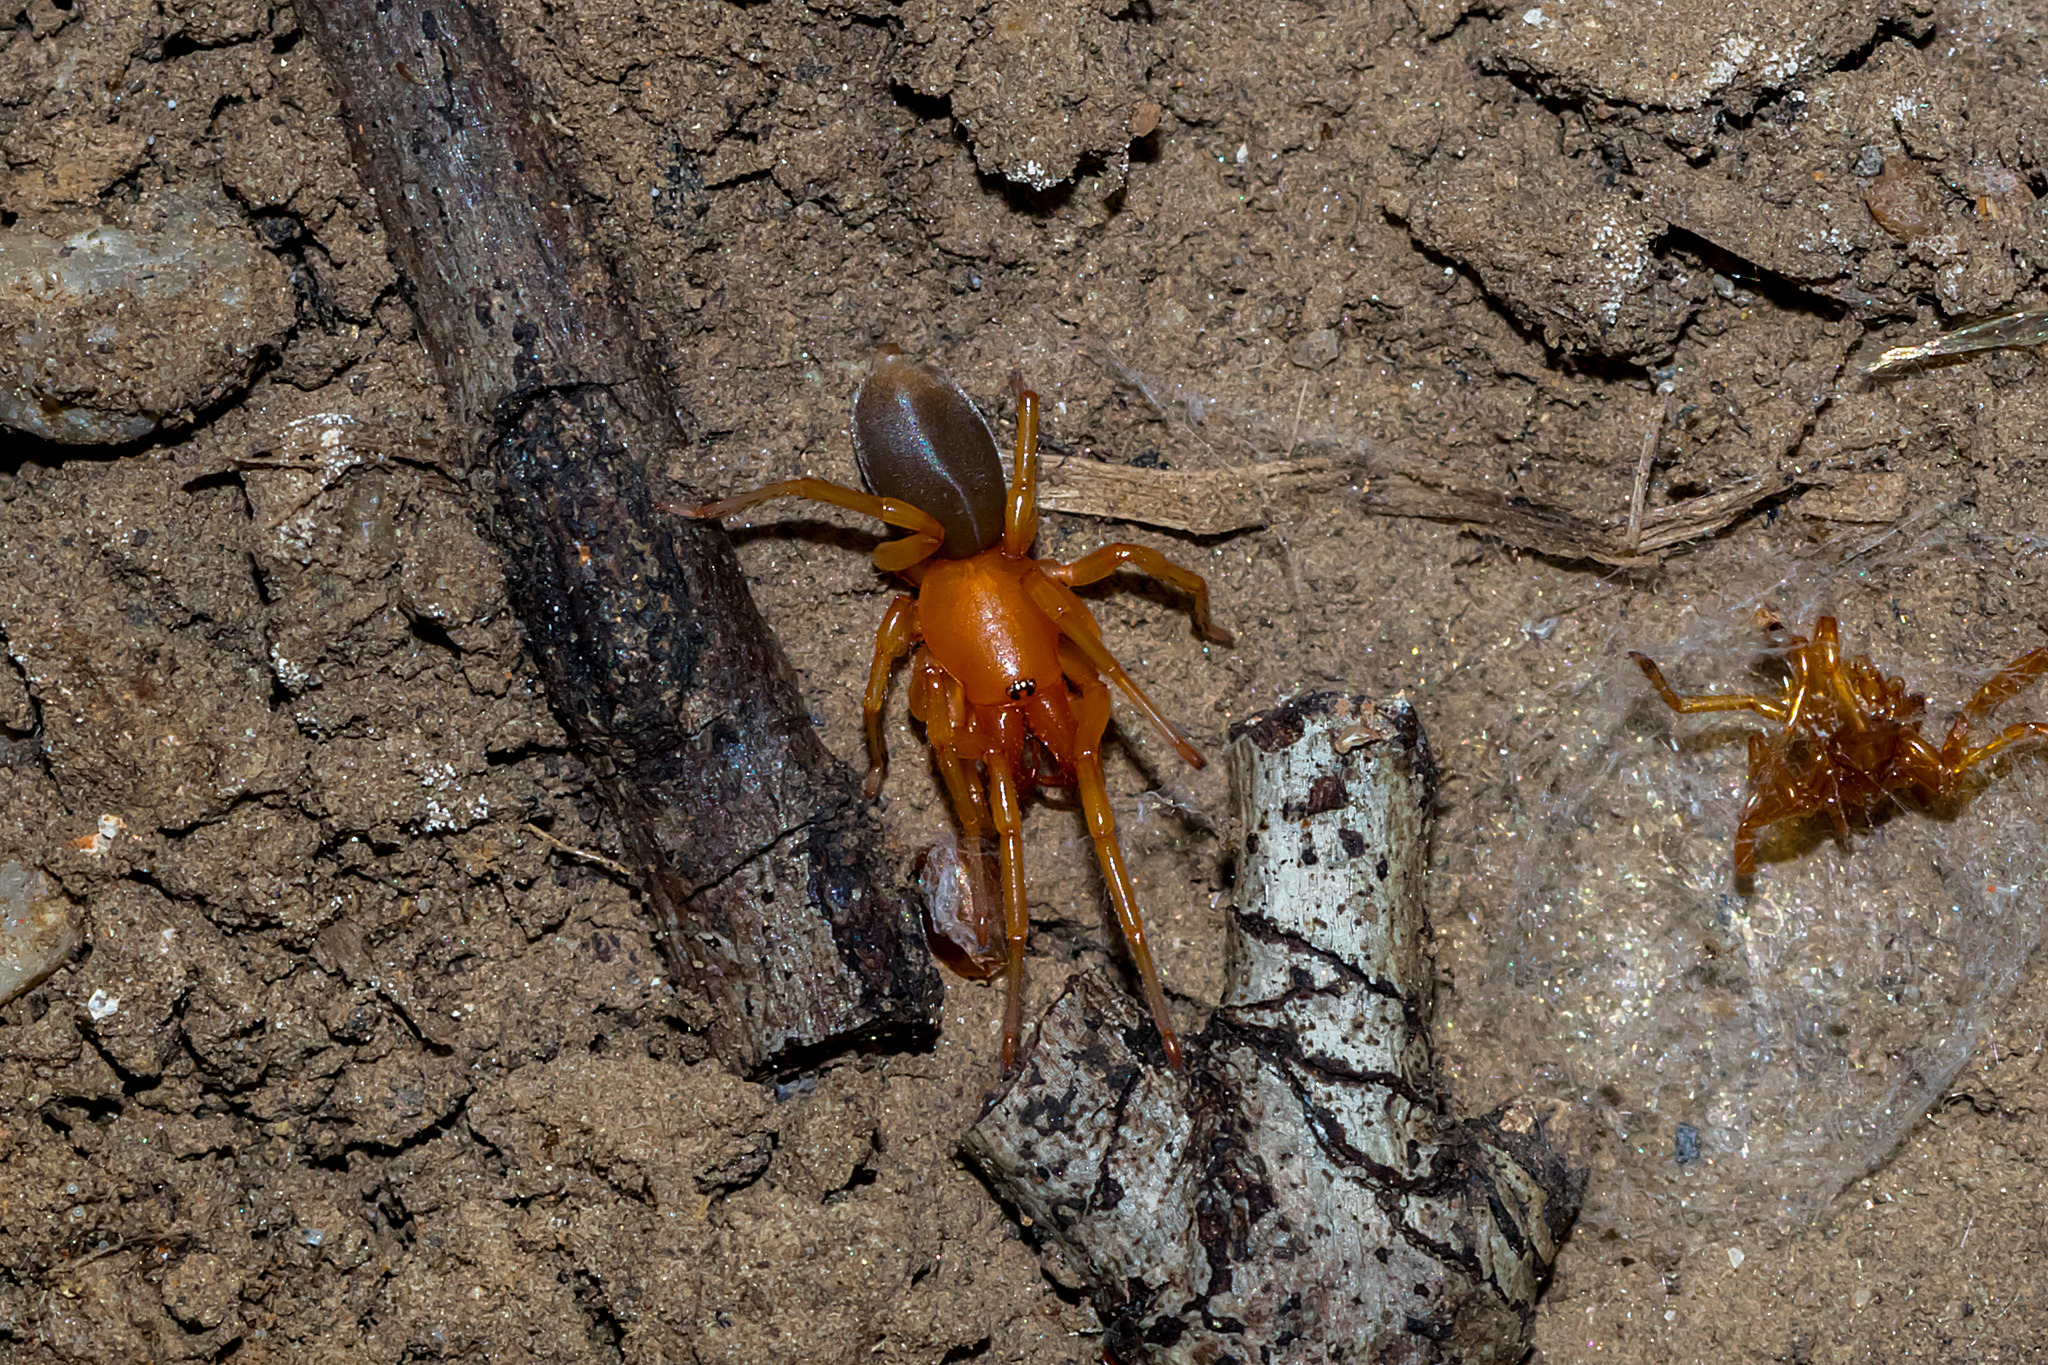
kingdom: Animalia
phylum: Arthropoda
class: Arachnida
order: Araneae
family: Dysderidae
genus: Dysdera
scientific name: Dysdera crocata
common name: Woodlouse spider
